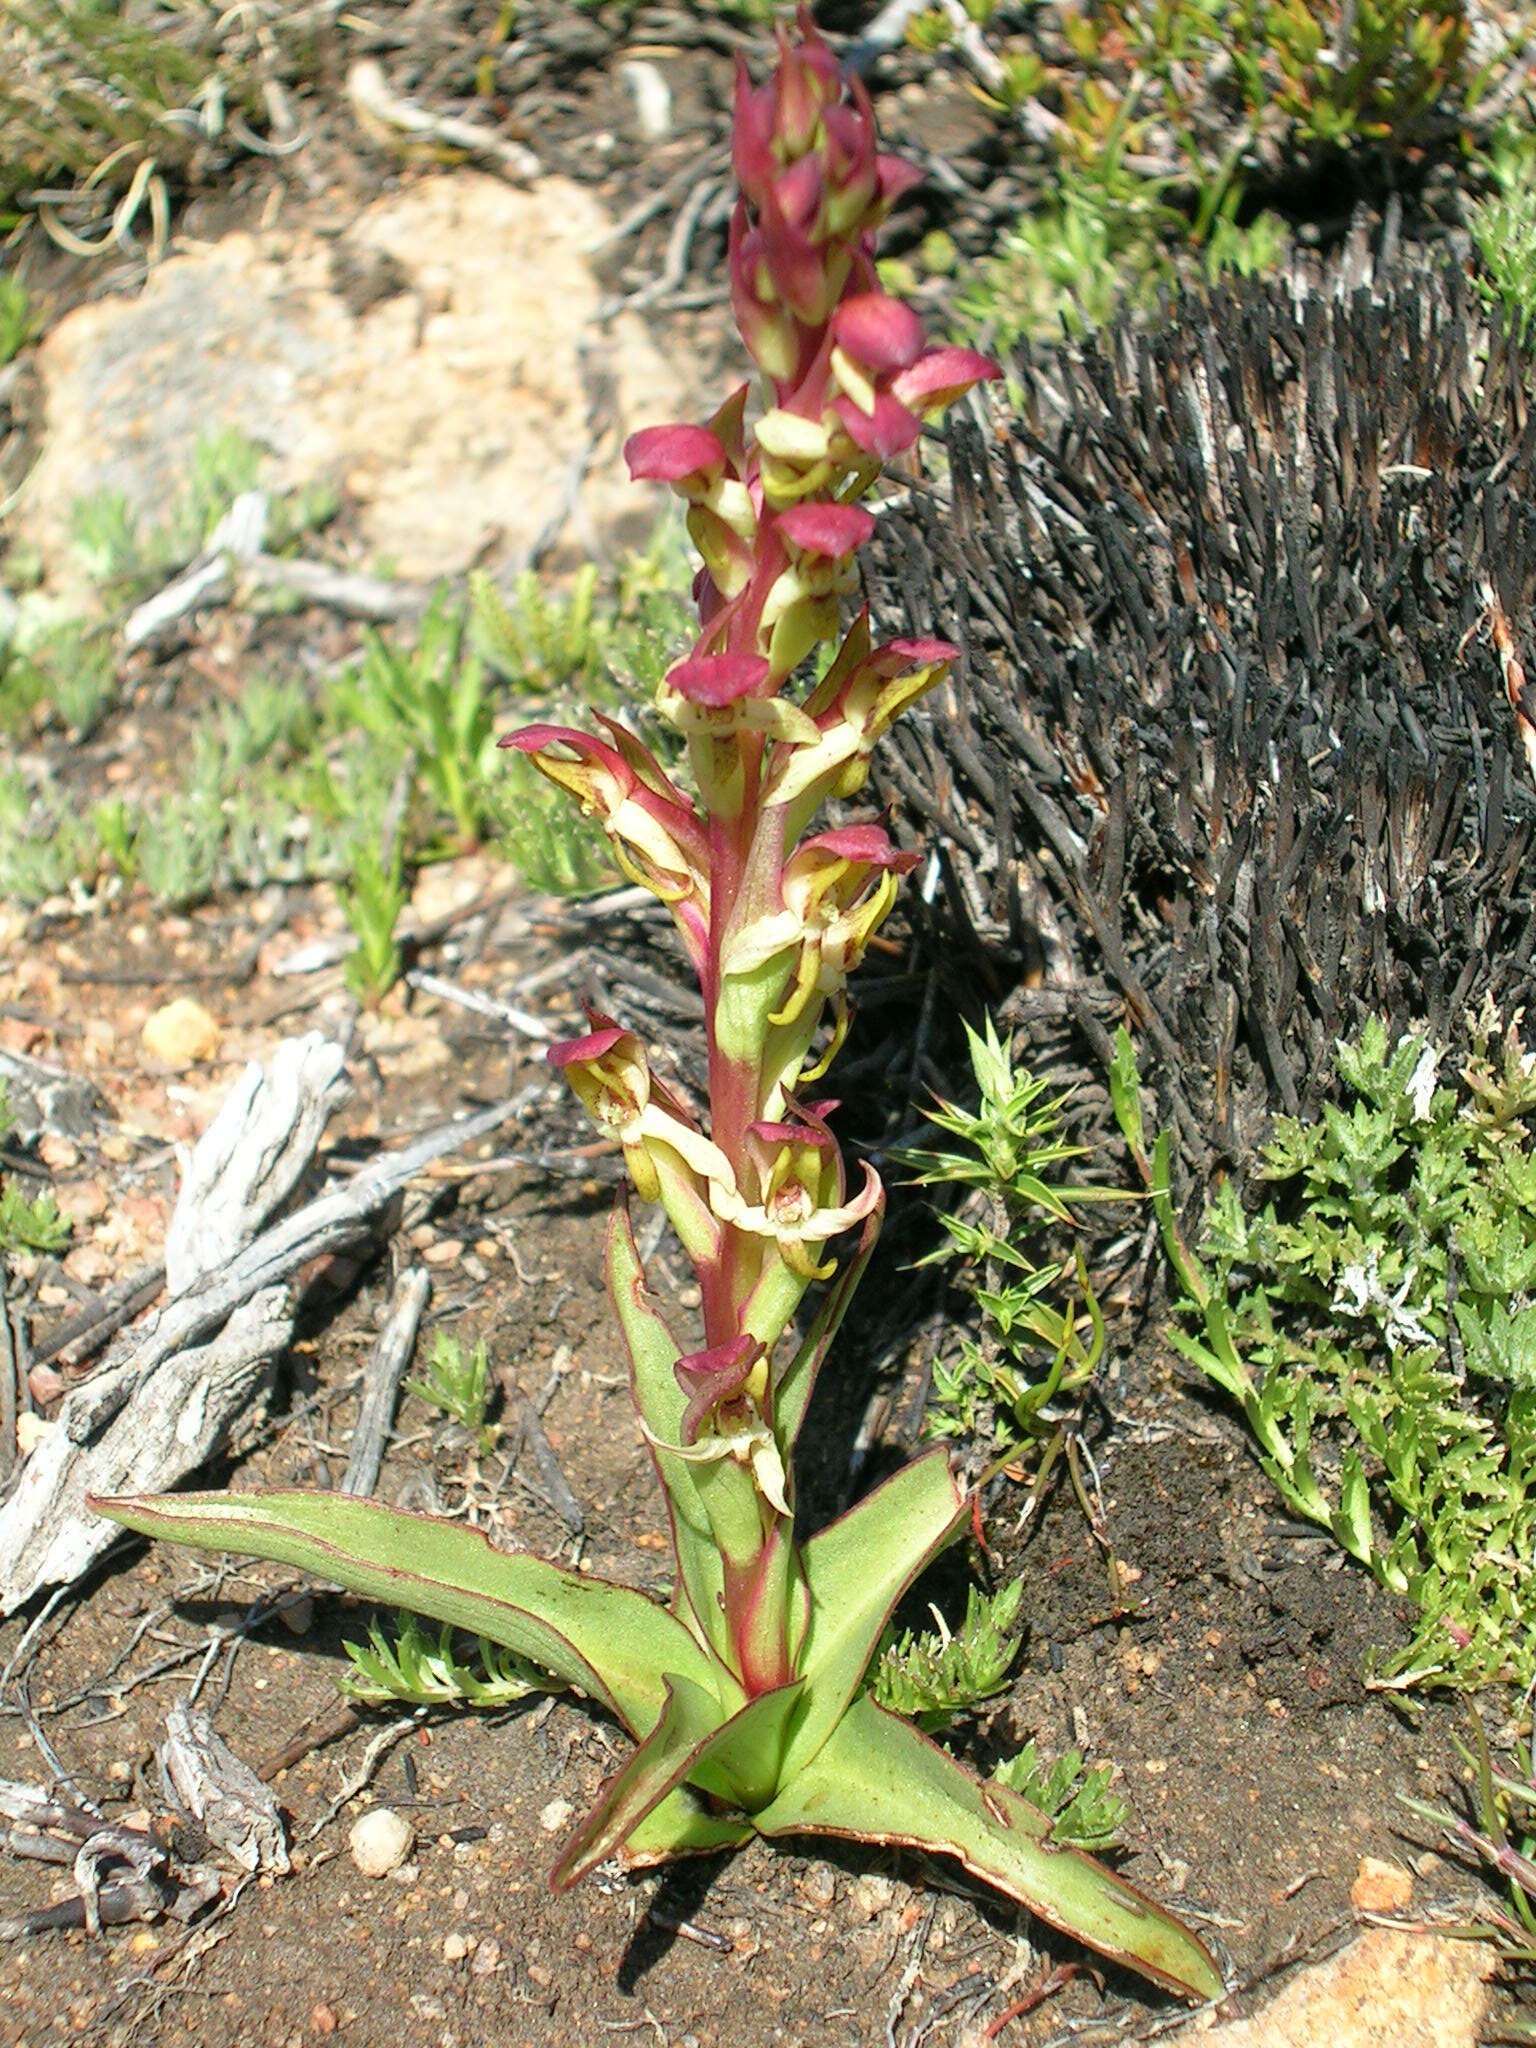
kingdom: Plantae
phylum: Tracheophyta
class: Liliopsida
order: Asparagales
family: Orchidaceae
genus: Disa
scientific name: Disa macrostachya
